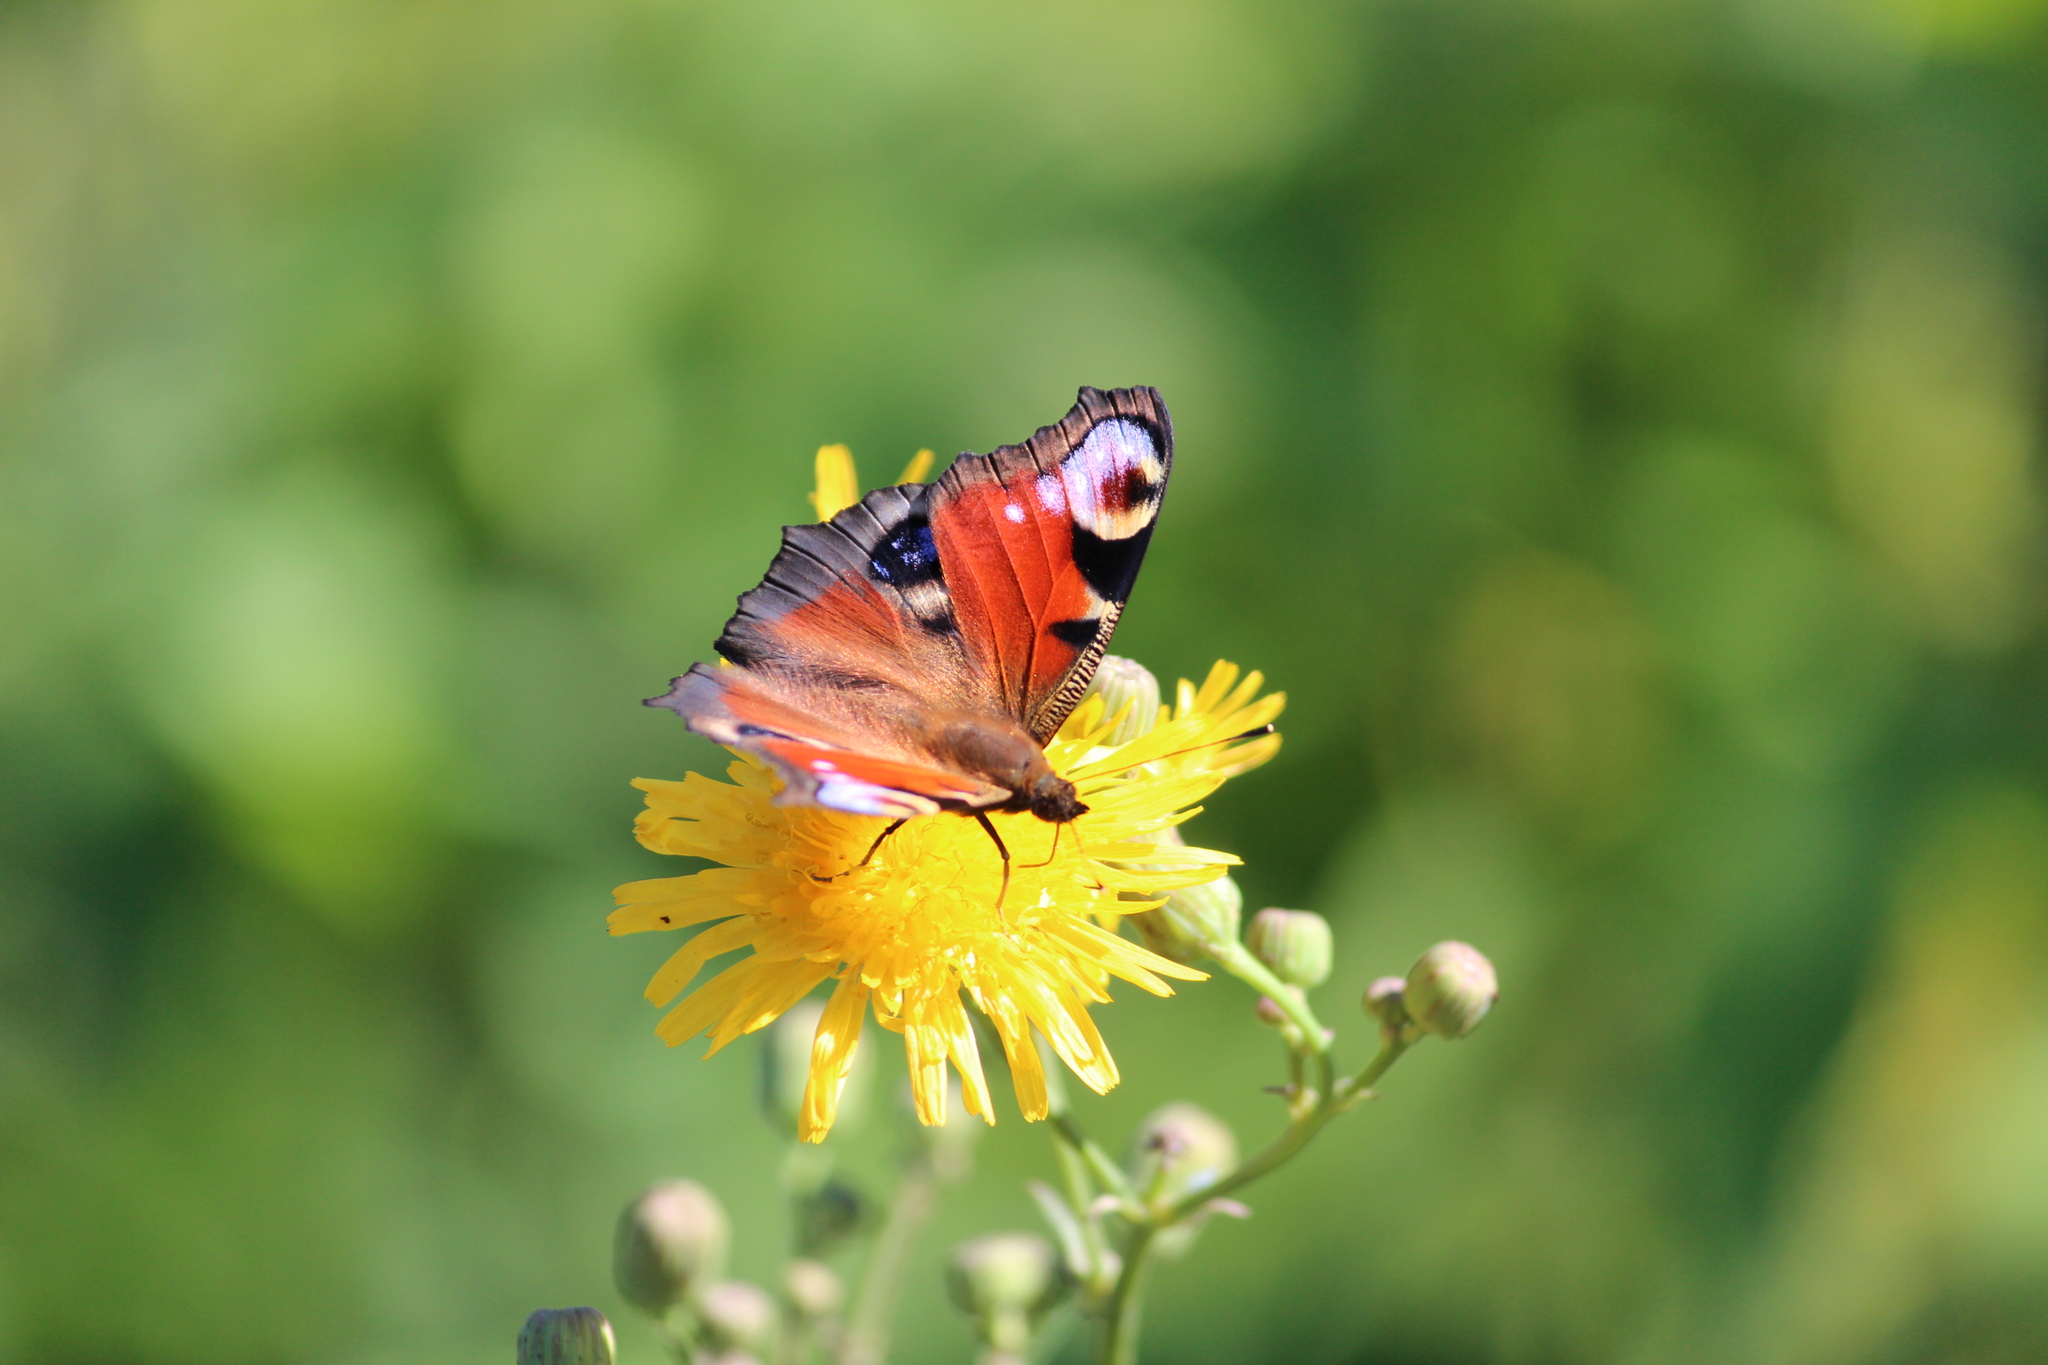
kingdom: Animalia
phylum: Arthropoda
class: Insecta
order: Lepidoptera
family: Nymphalidae
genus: Aglais
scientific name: Aglais io
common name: Peacock
